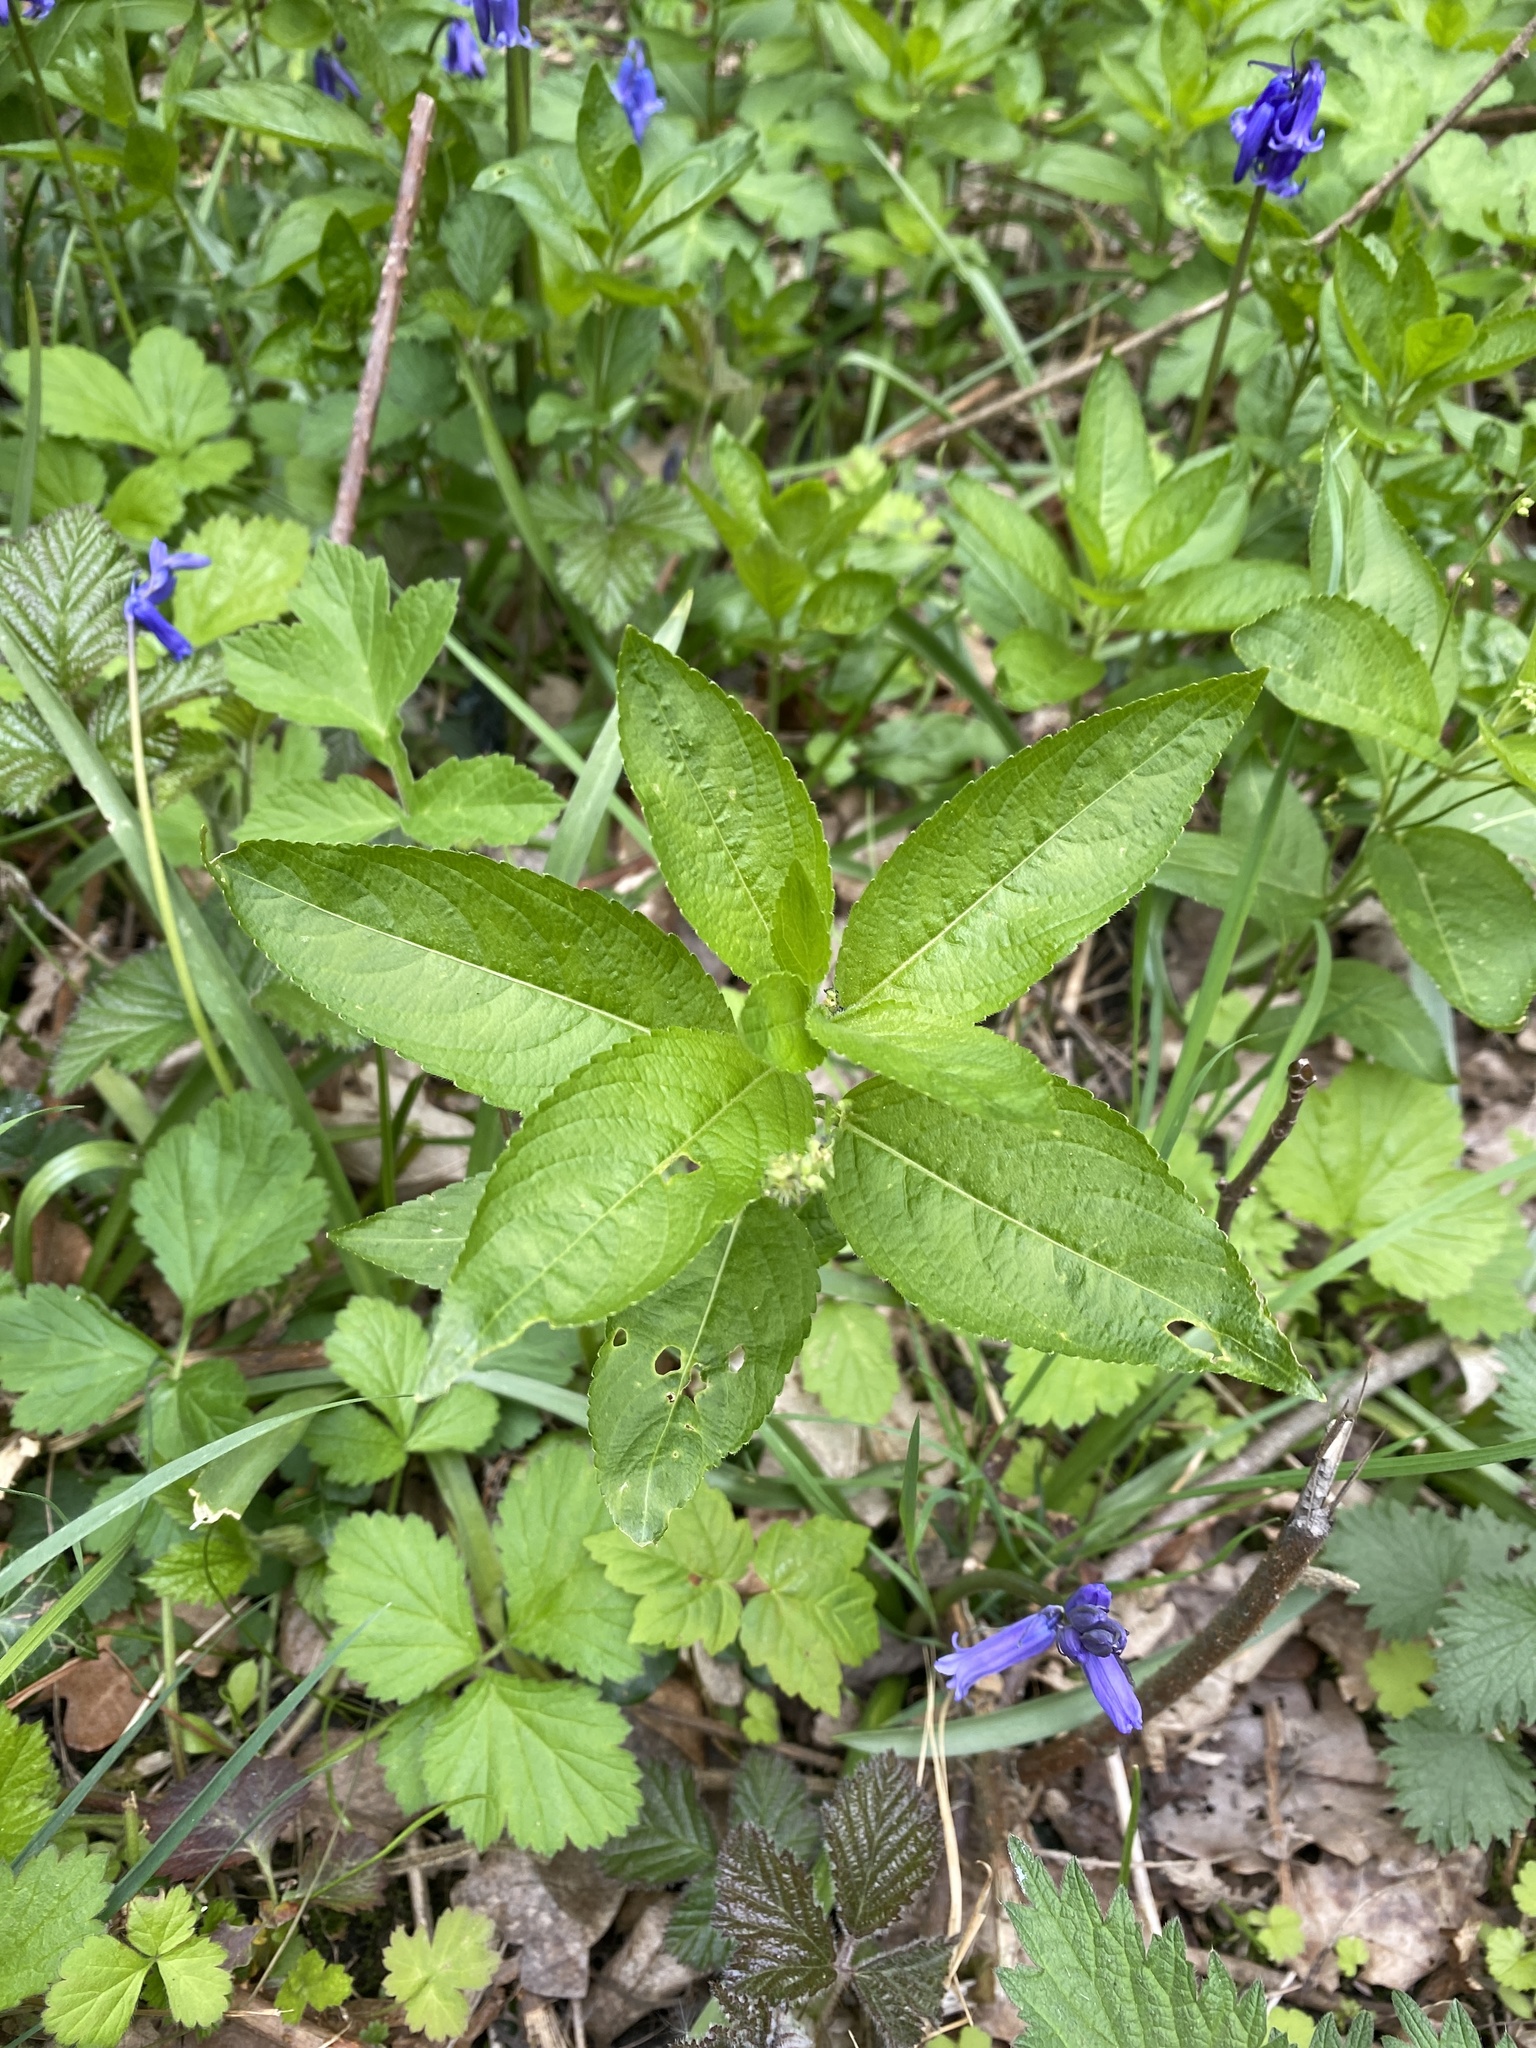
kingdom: Plantae
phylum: Tracheophyta
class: Magnoliopsida
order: Malpighiales
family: Euphorbiaceae
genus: Mercurialis
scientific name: Mercurialis perennis
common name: Dog mercury
